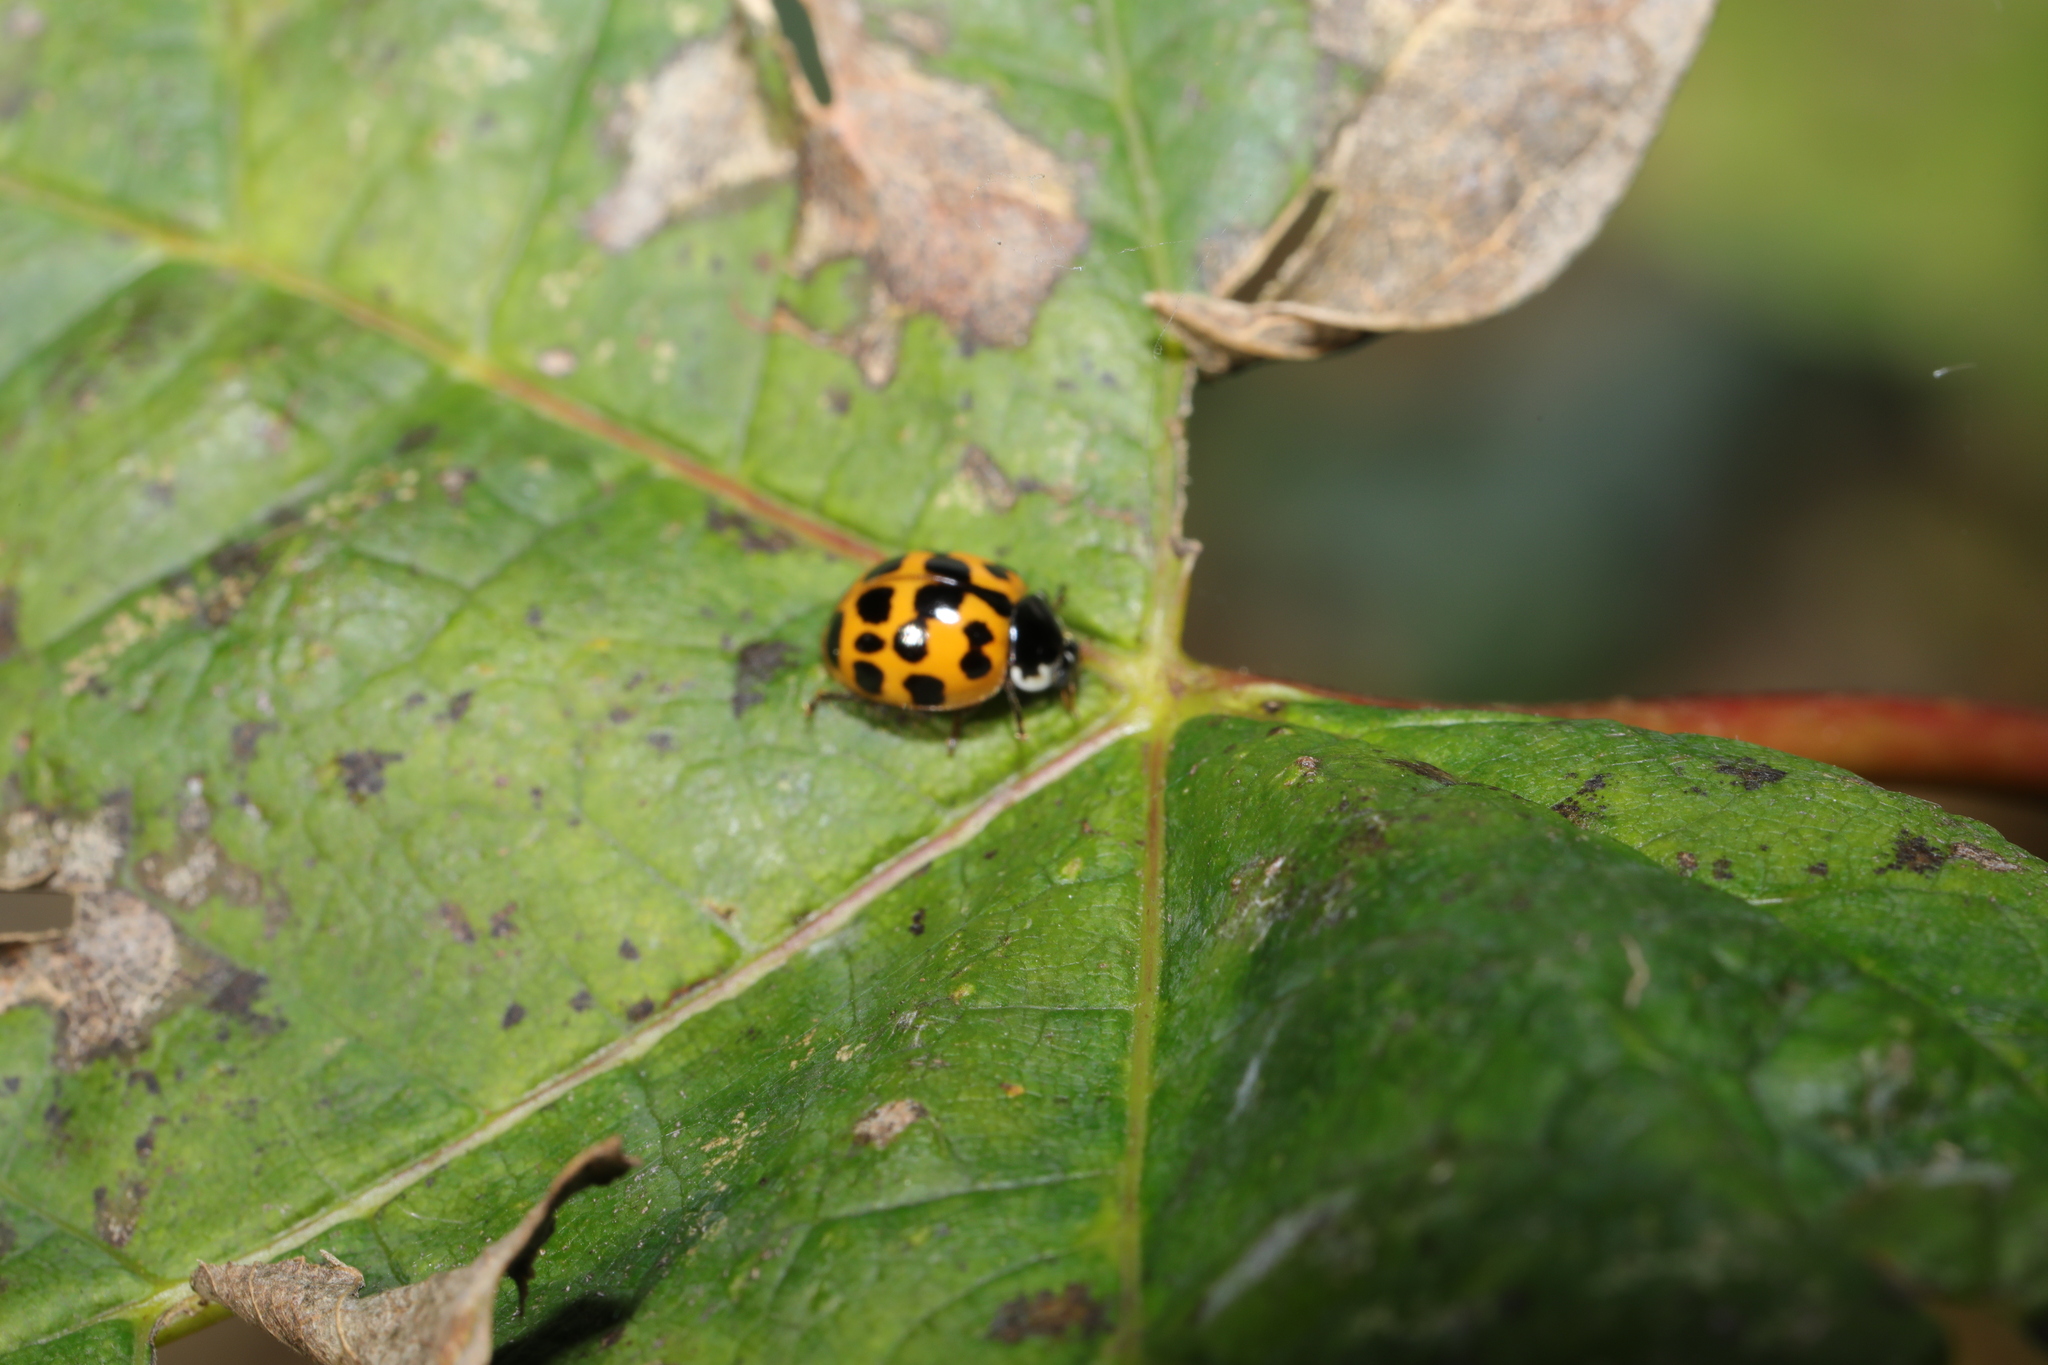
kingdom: Animalia
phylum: Arthropoda
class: Insecta
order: Coleoptera
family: Coccinellidae
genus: Harmonia
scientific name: Harmonia axyridis
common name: Harlequin ladybird
